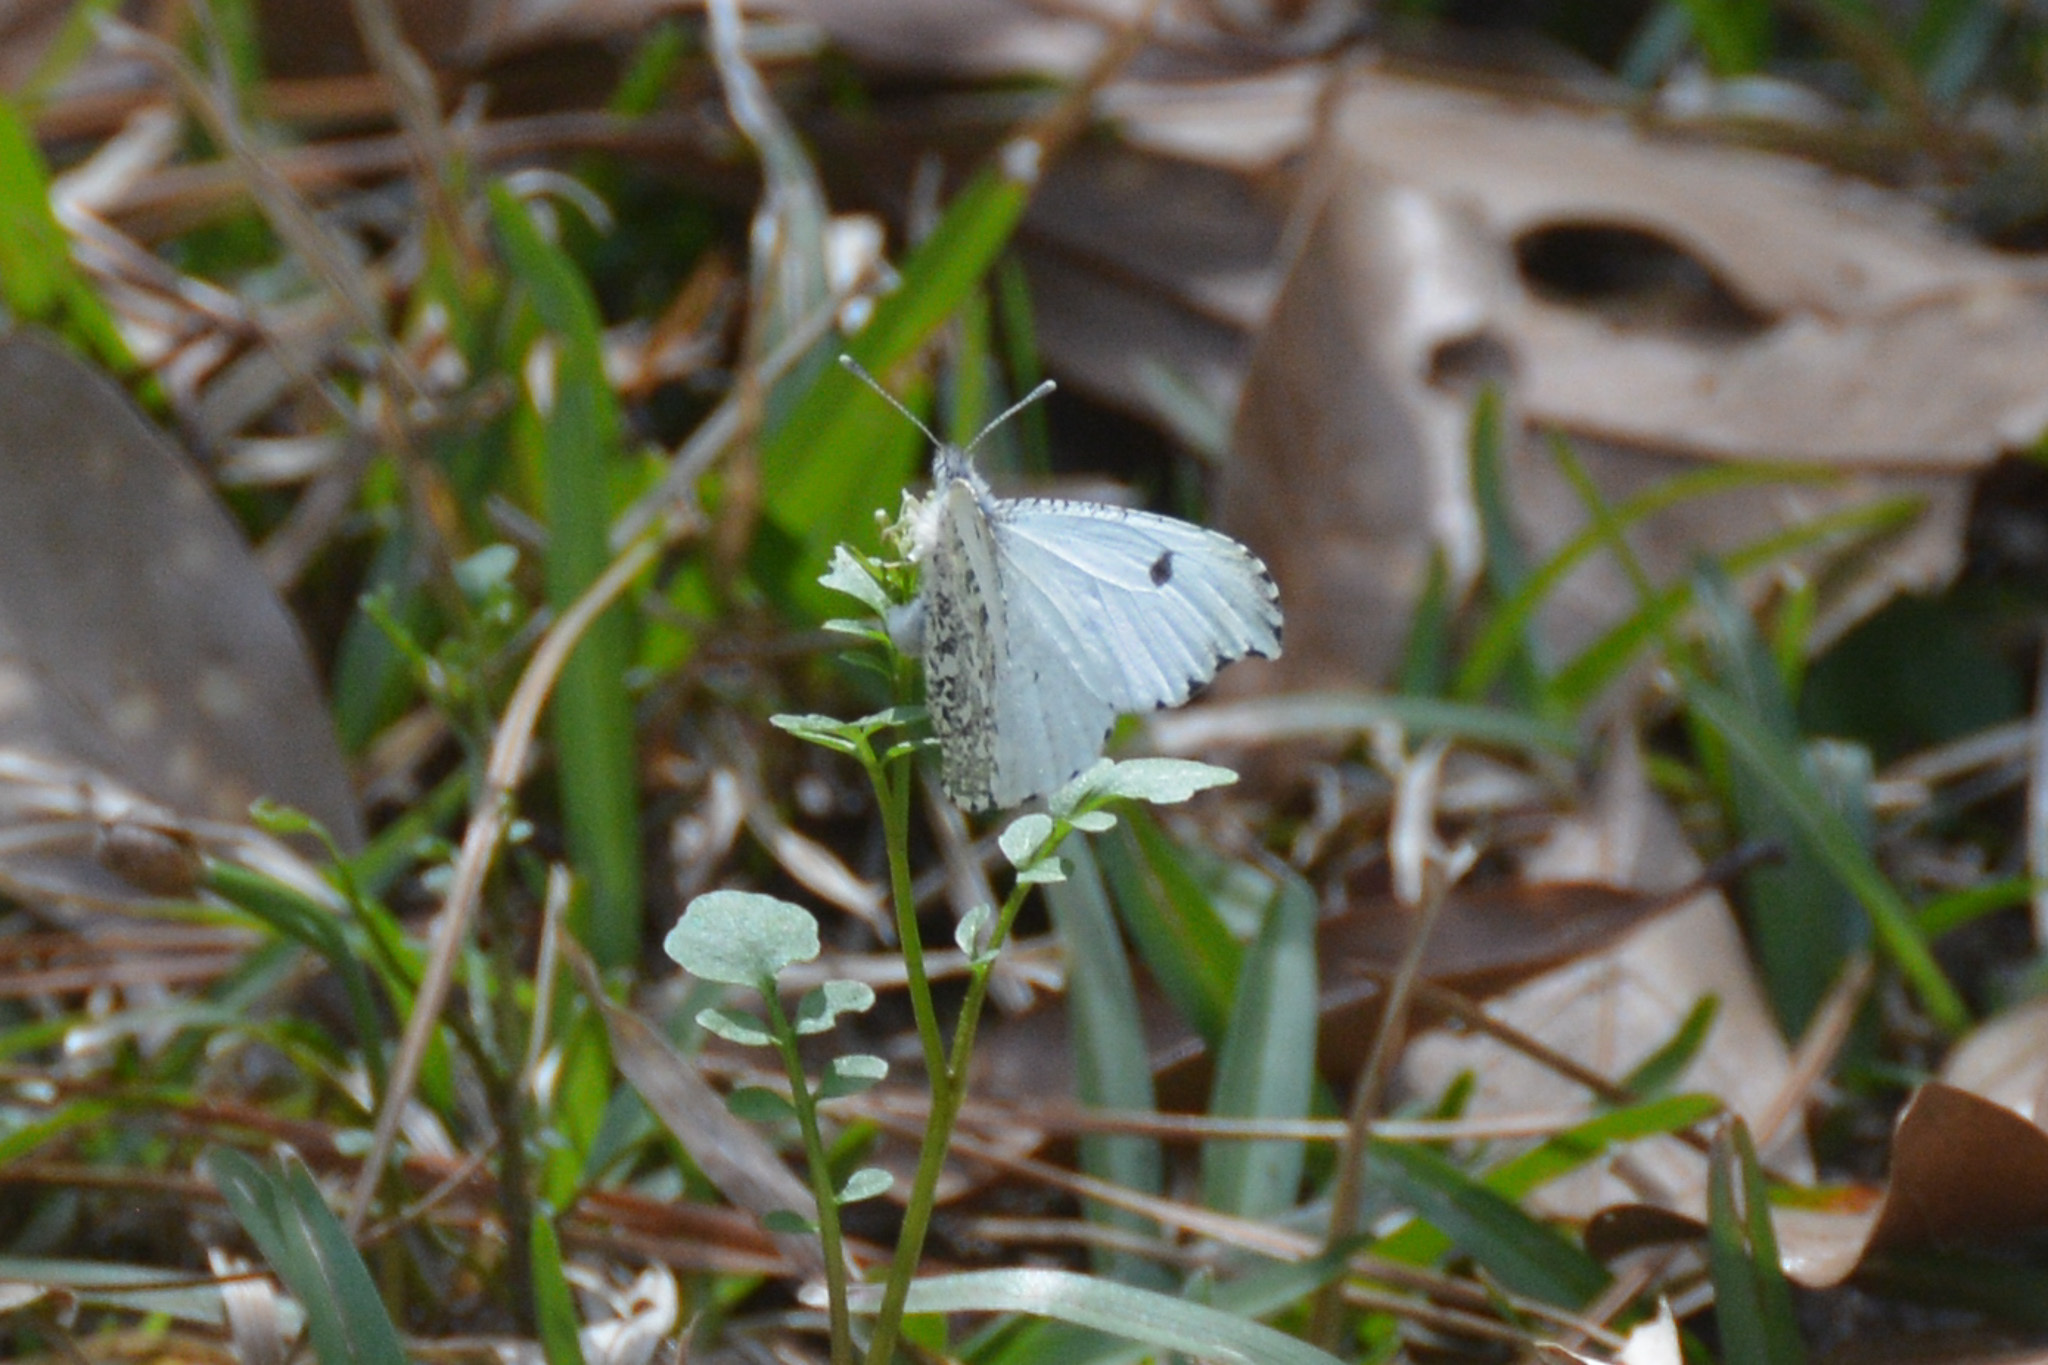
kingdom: Animalia
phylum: Arthropoda
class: Insecta
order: Lepidoptera
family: Pieridae
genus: Anthocharis
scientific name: Anthocharis midea
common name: Falcate orangetip
